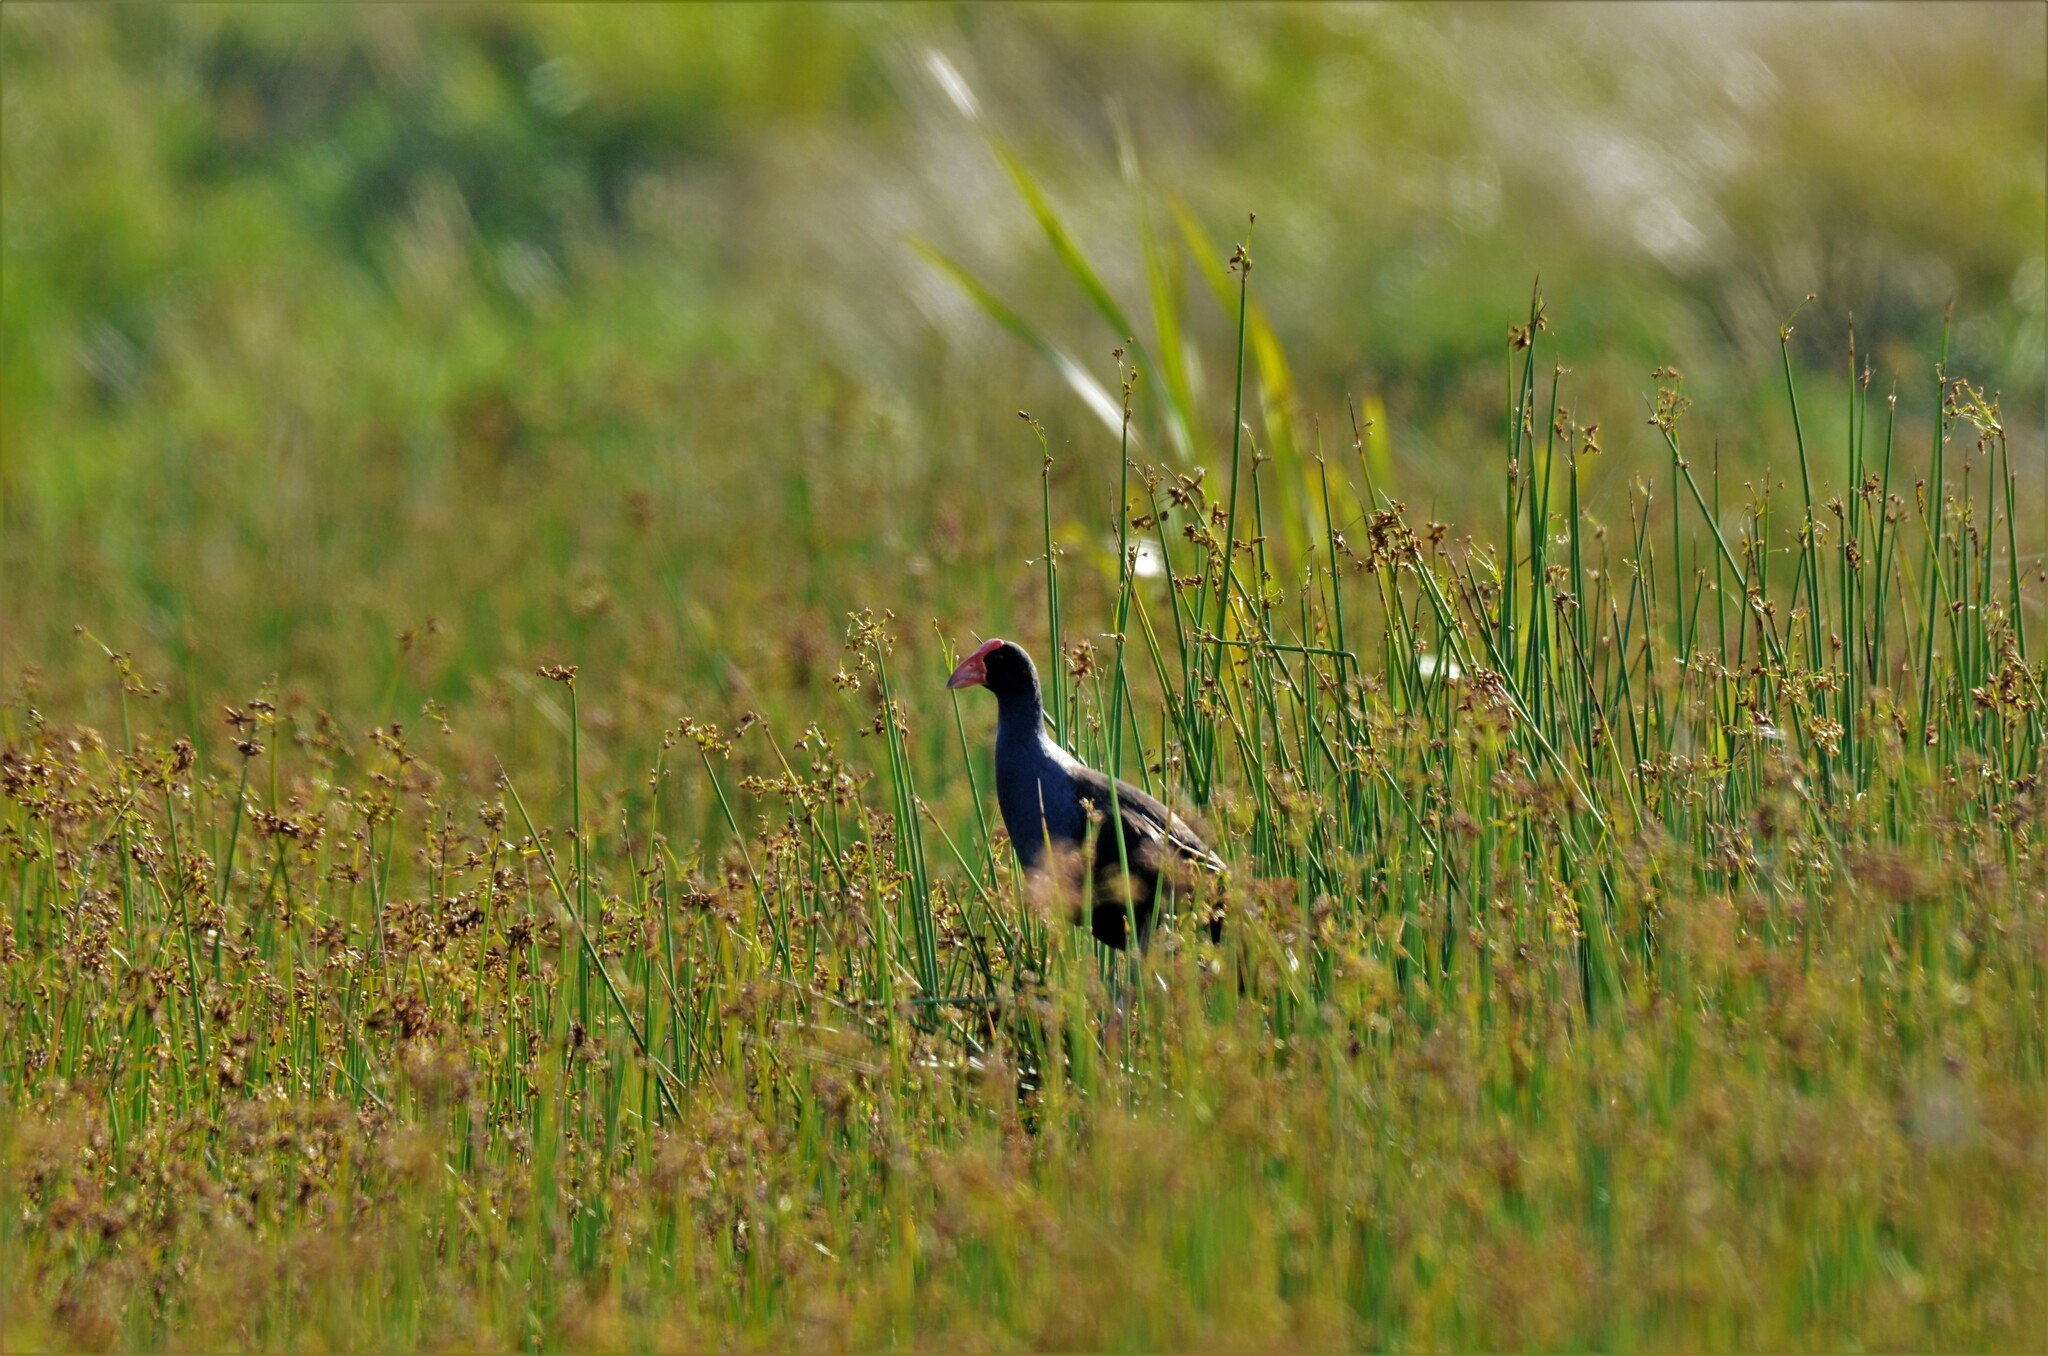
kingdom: Animalia
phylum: Chordata
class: Aves
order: Gruiformes
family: Rallidae
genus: Porphyrio
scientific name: Porphyrio melanotus
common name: Australasian swamphen
